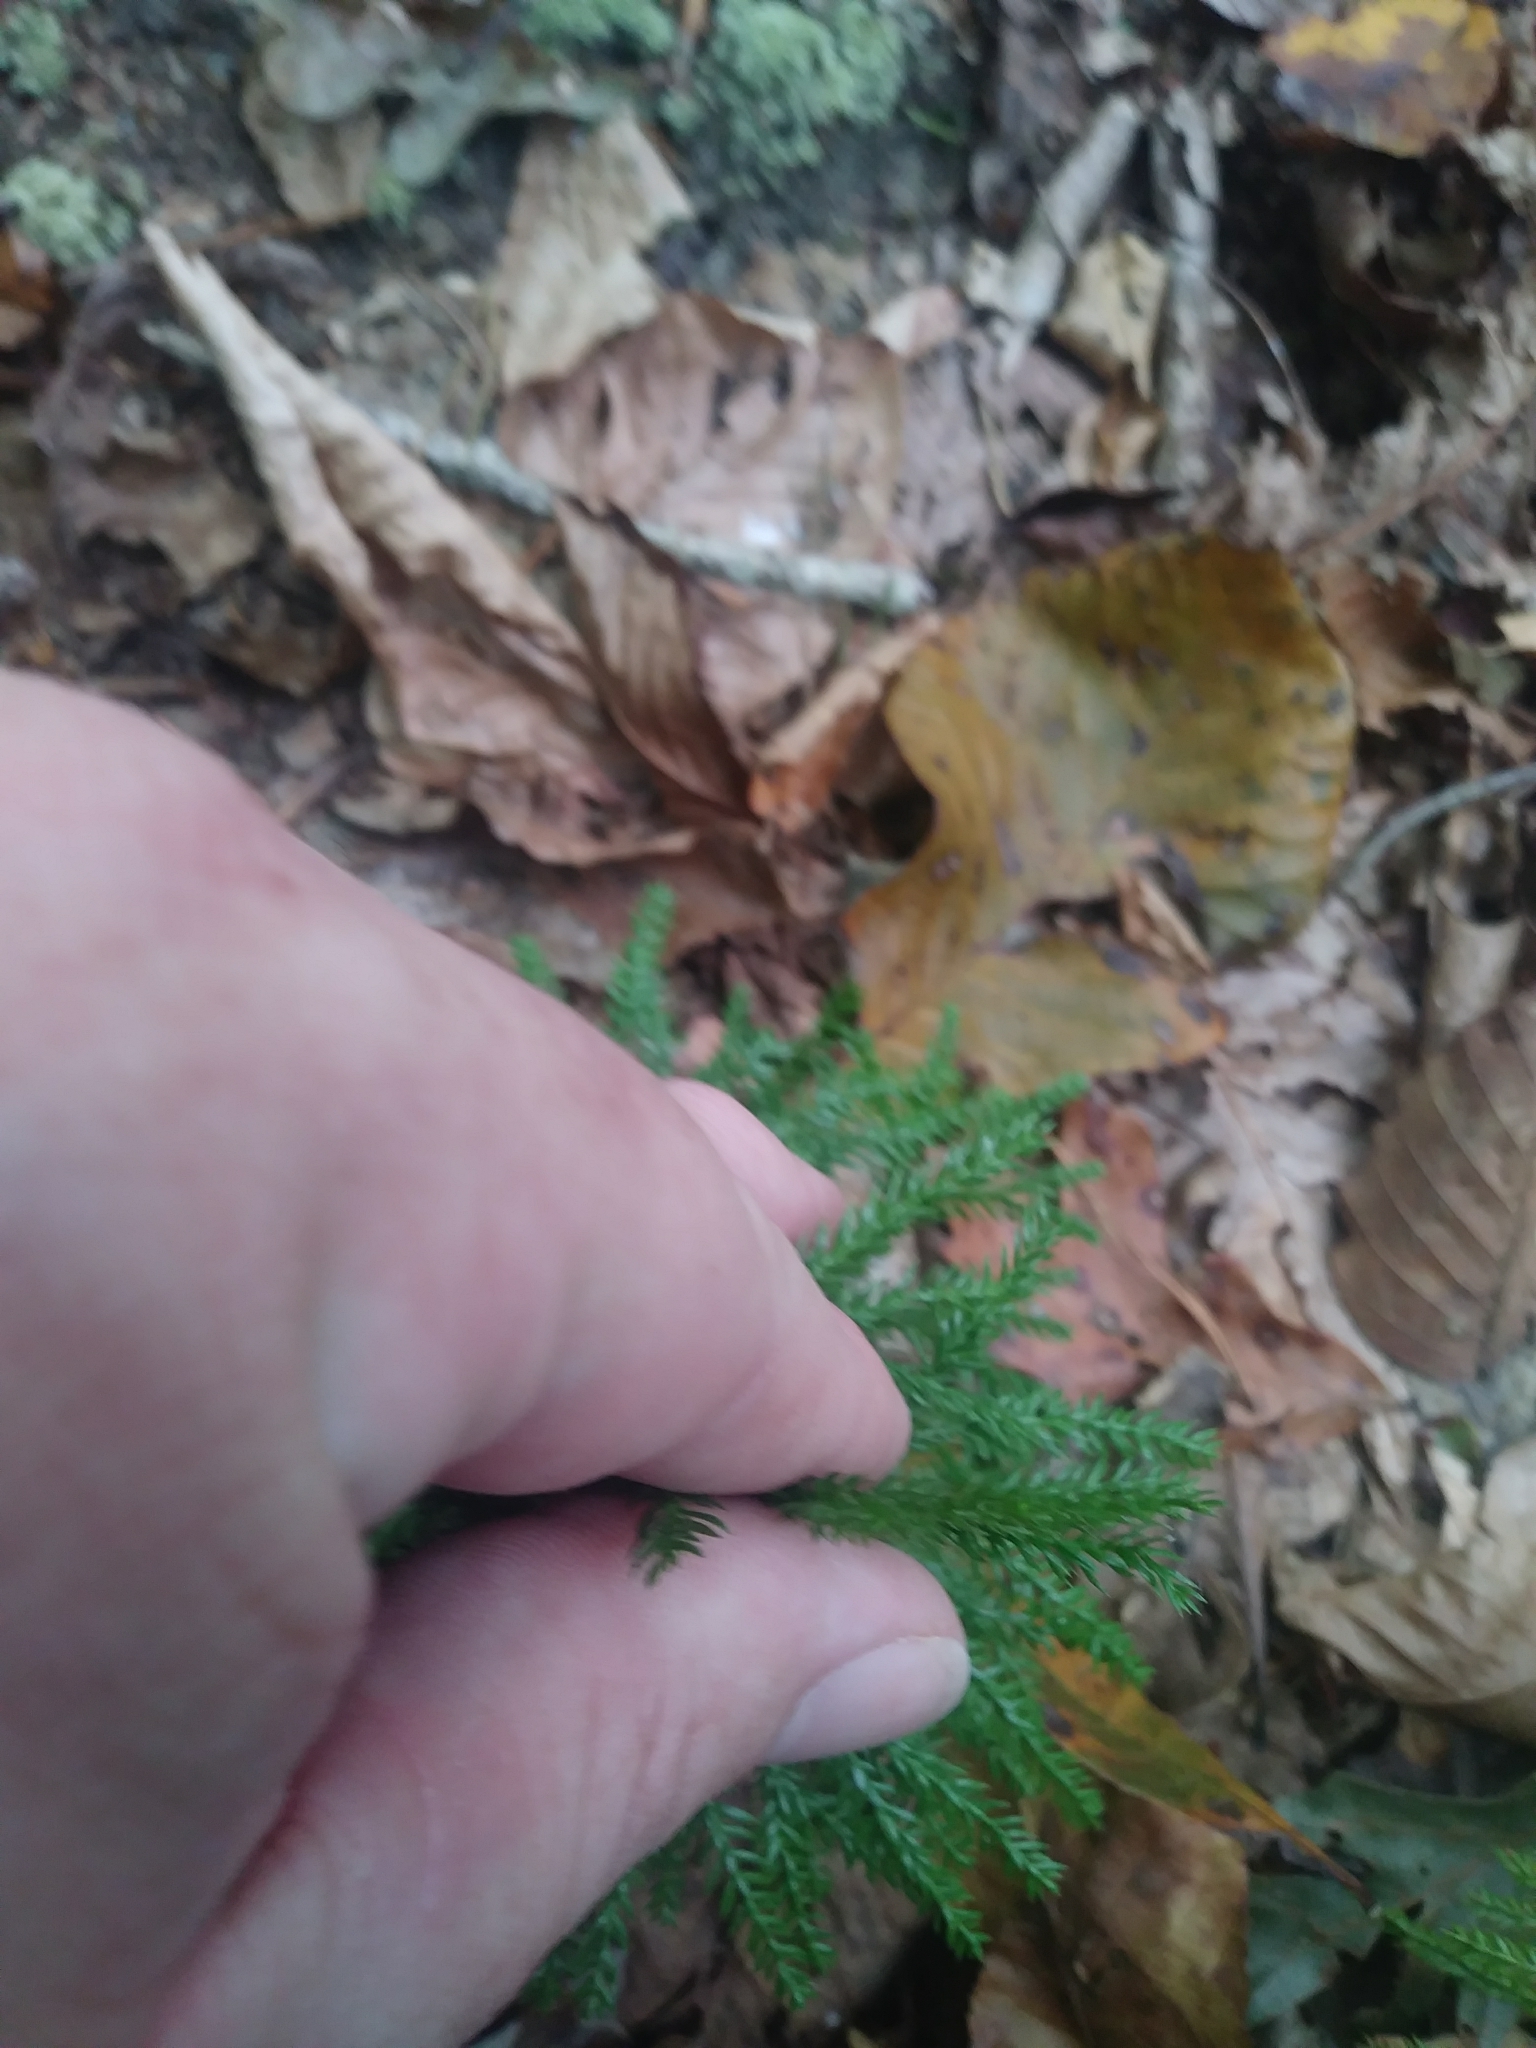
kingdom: Plantae
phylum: Tracheophyta
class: Lycopodiopsida
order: Lycopodiales
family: Lycopodiaceae
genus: Dendrolycopodium
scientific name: Dendrolycopodium obscurum
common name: Common ground-pine
